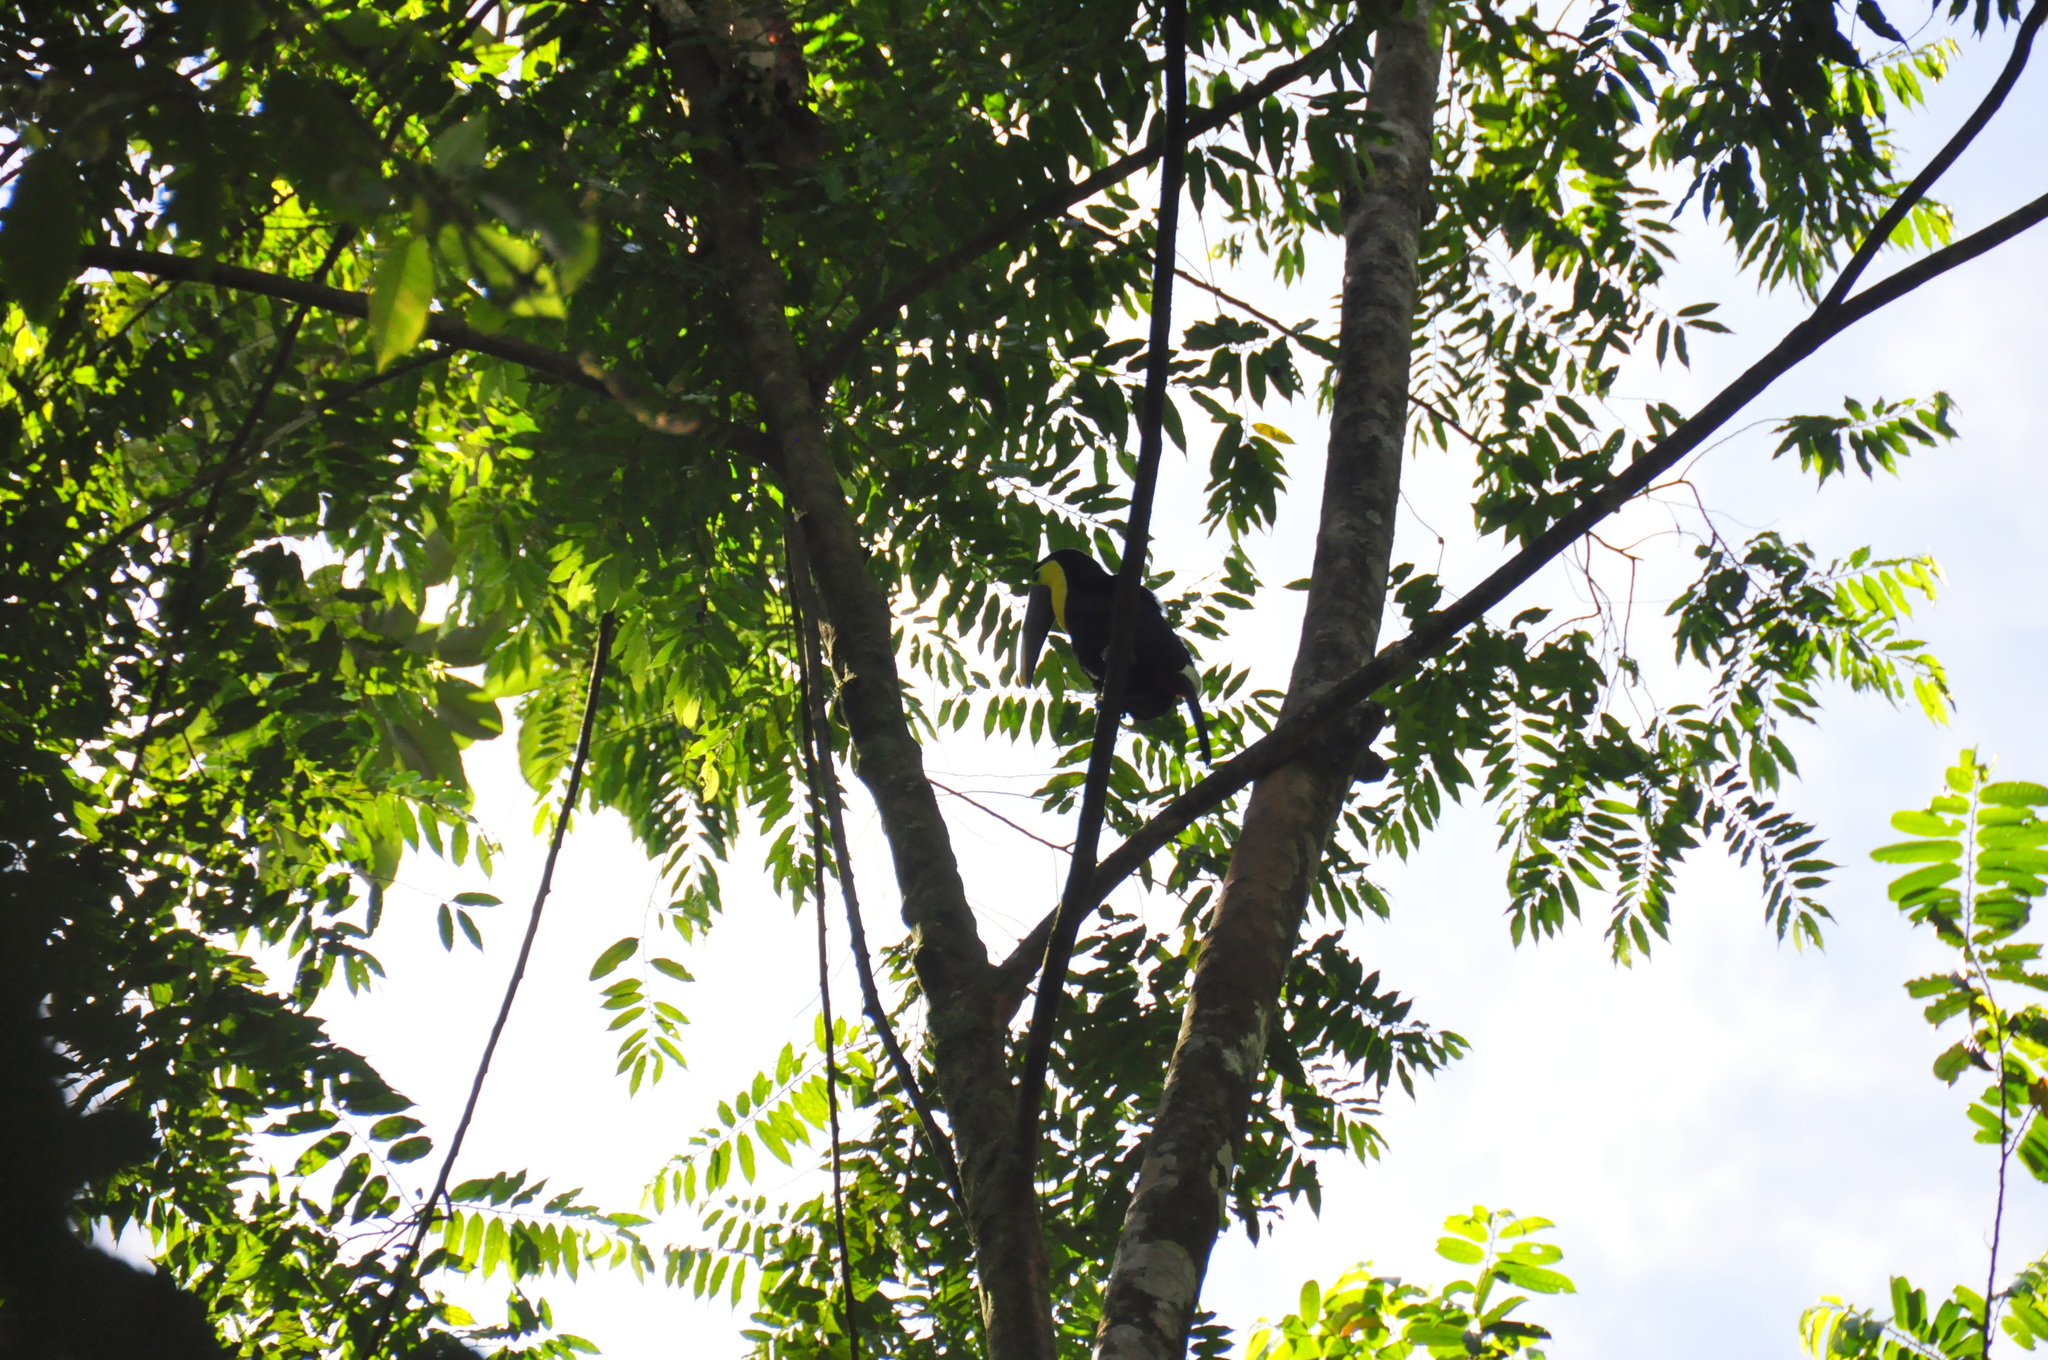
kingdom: Animalia
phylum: Chordata
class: Aves
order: Piciformes
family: Ramphastidae
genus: Ramphastos
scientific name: Ramphastos ambiguus
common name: Yellow-throated toucan
